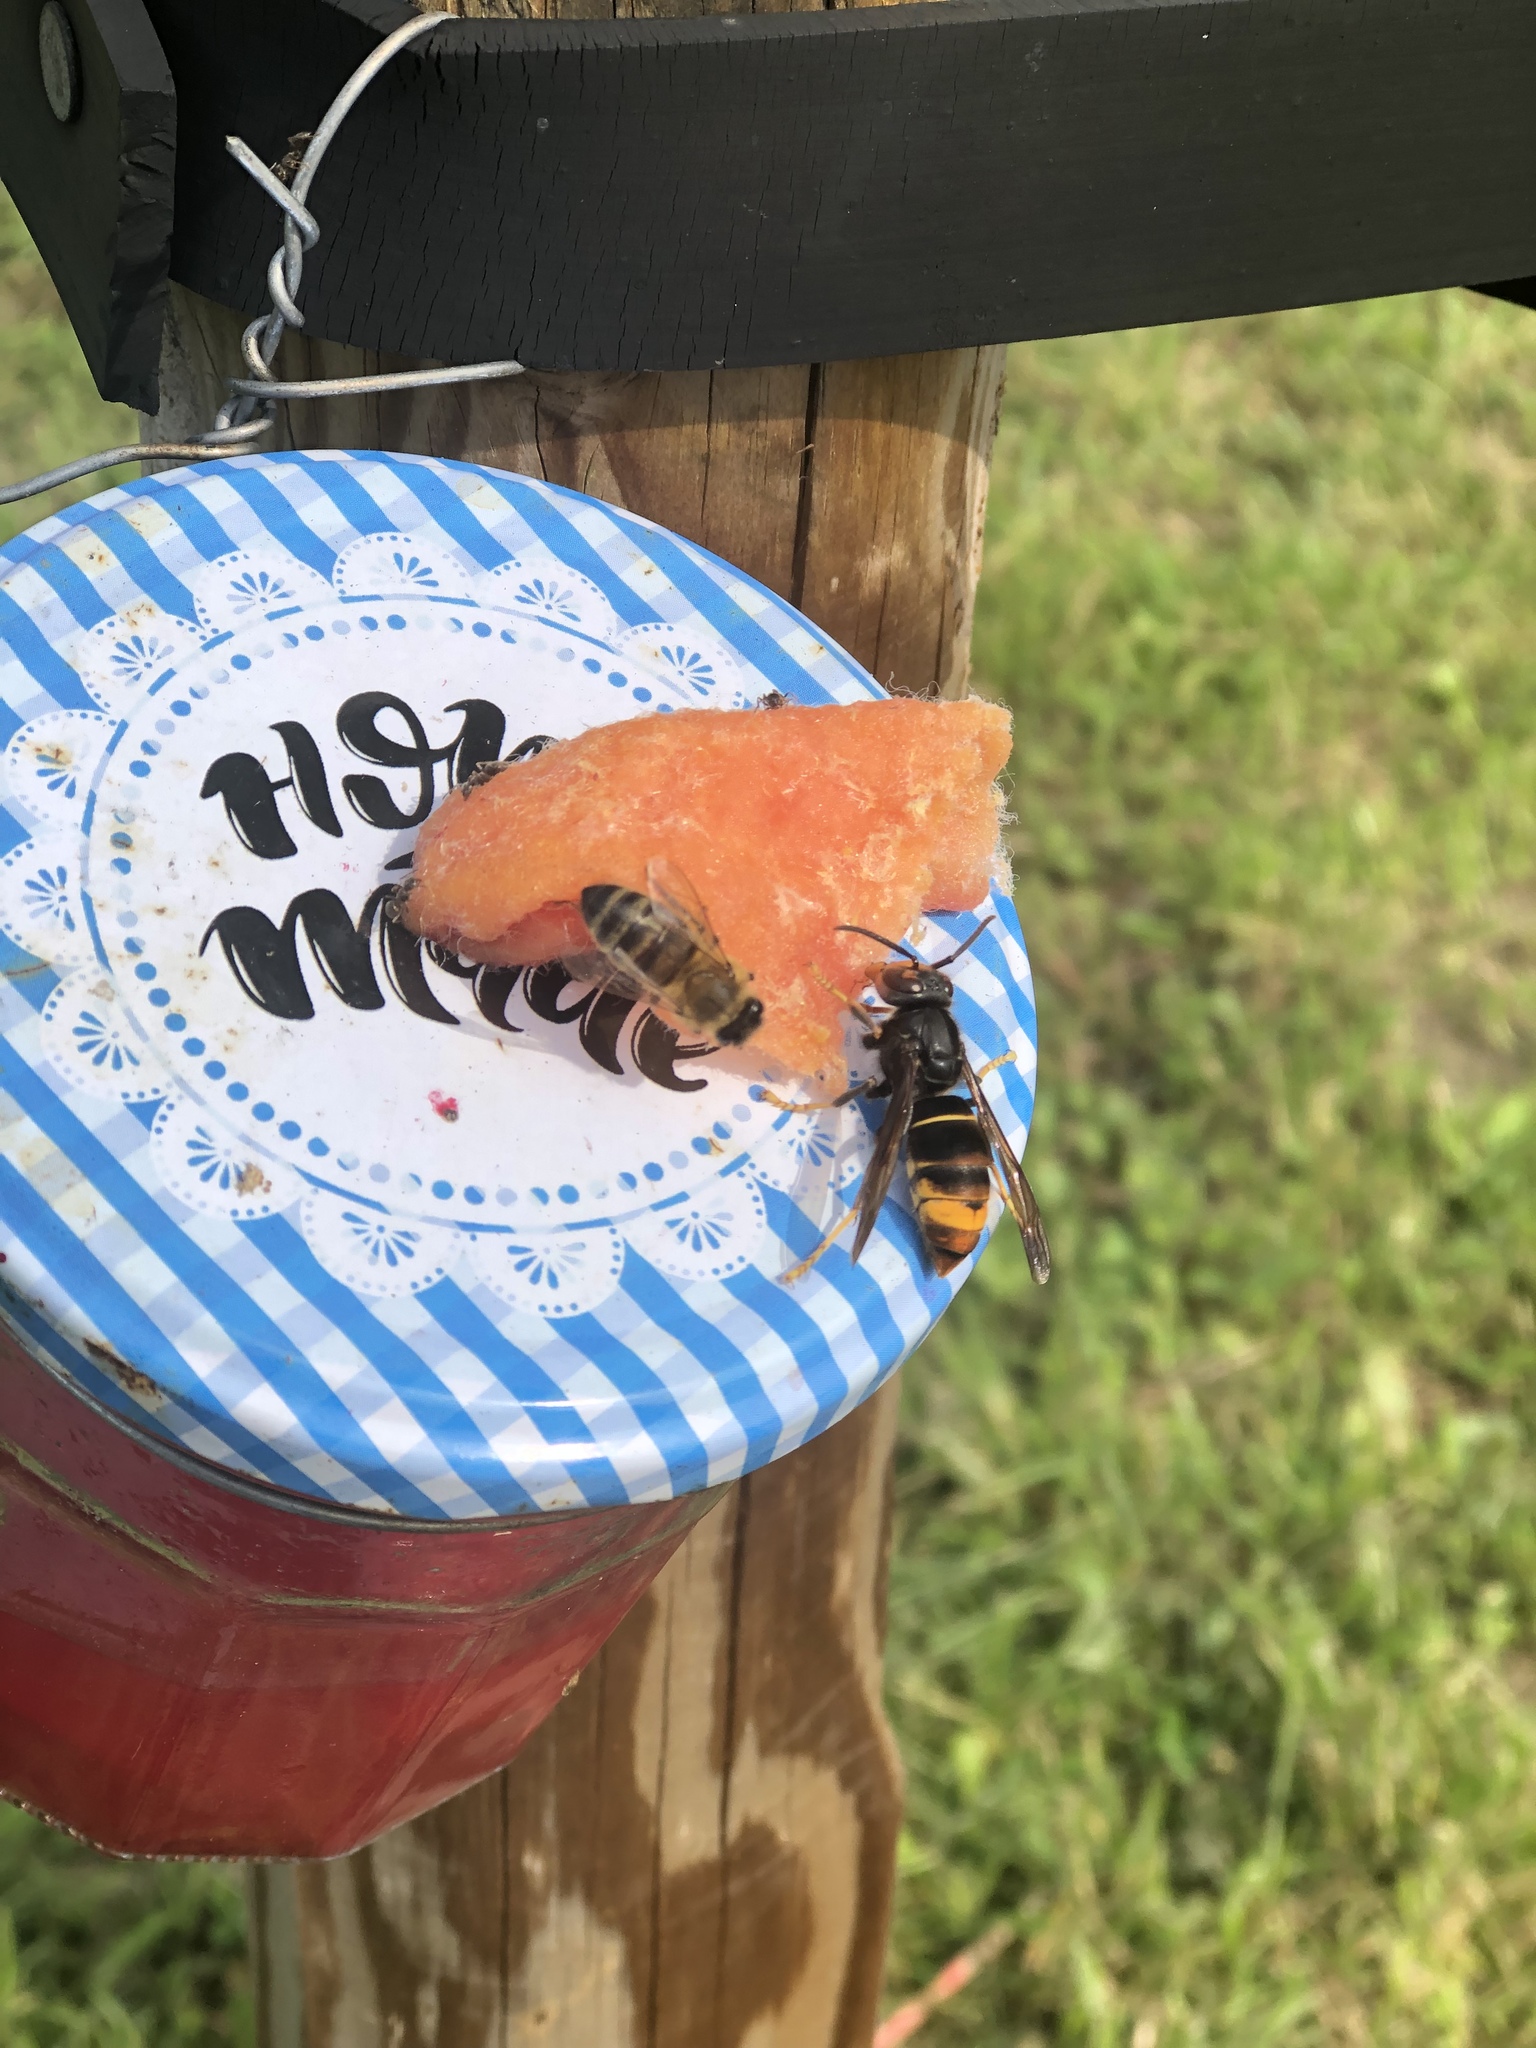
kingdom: Animalia
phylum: Arthropoda
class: Insecta
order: Hymenoptera
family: Vespidae
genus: Vespa
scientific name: Vespa velutina
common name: Asian hornet
